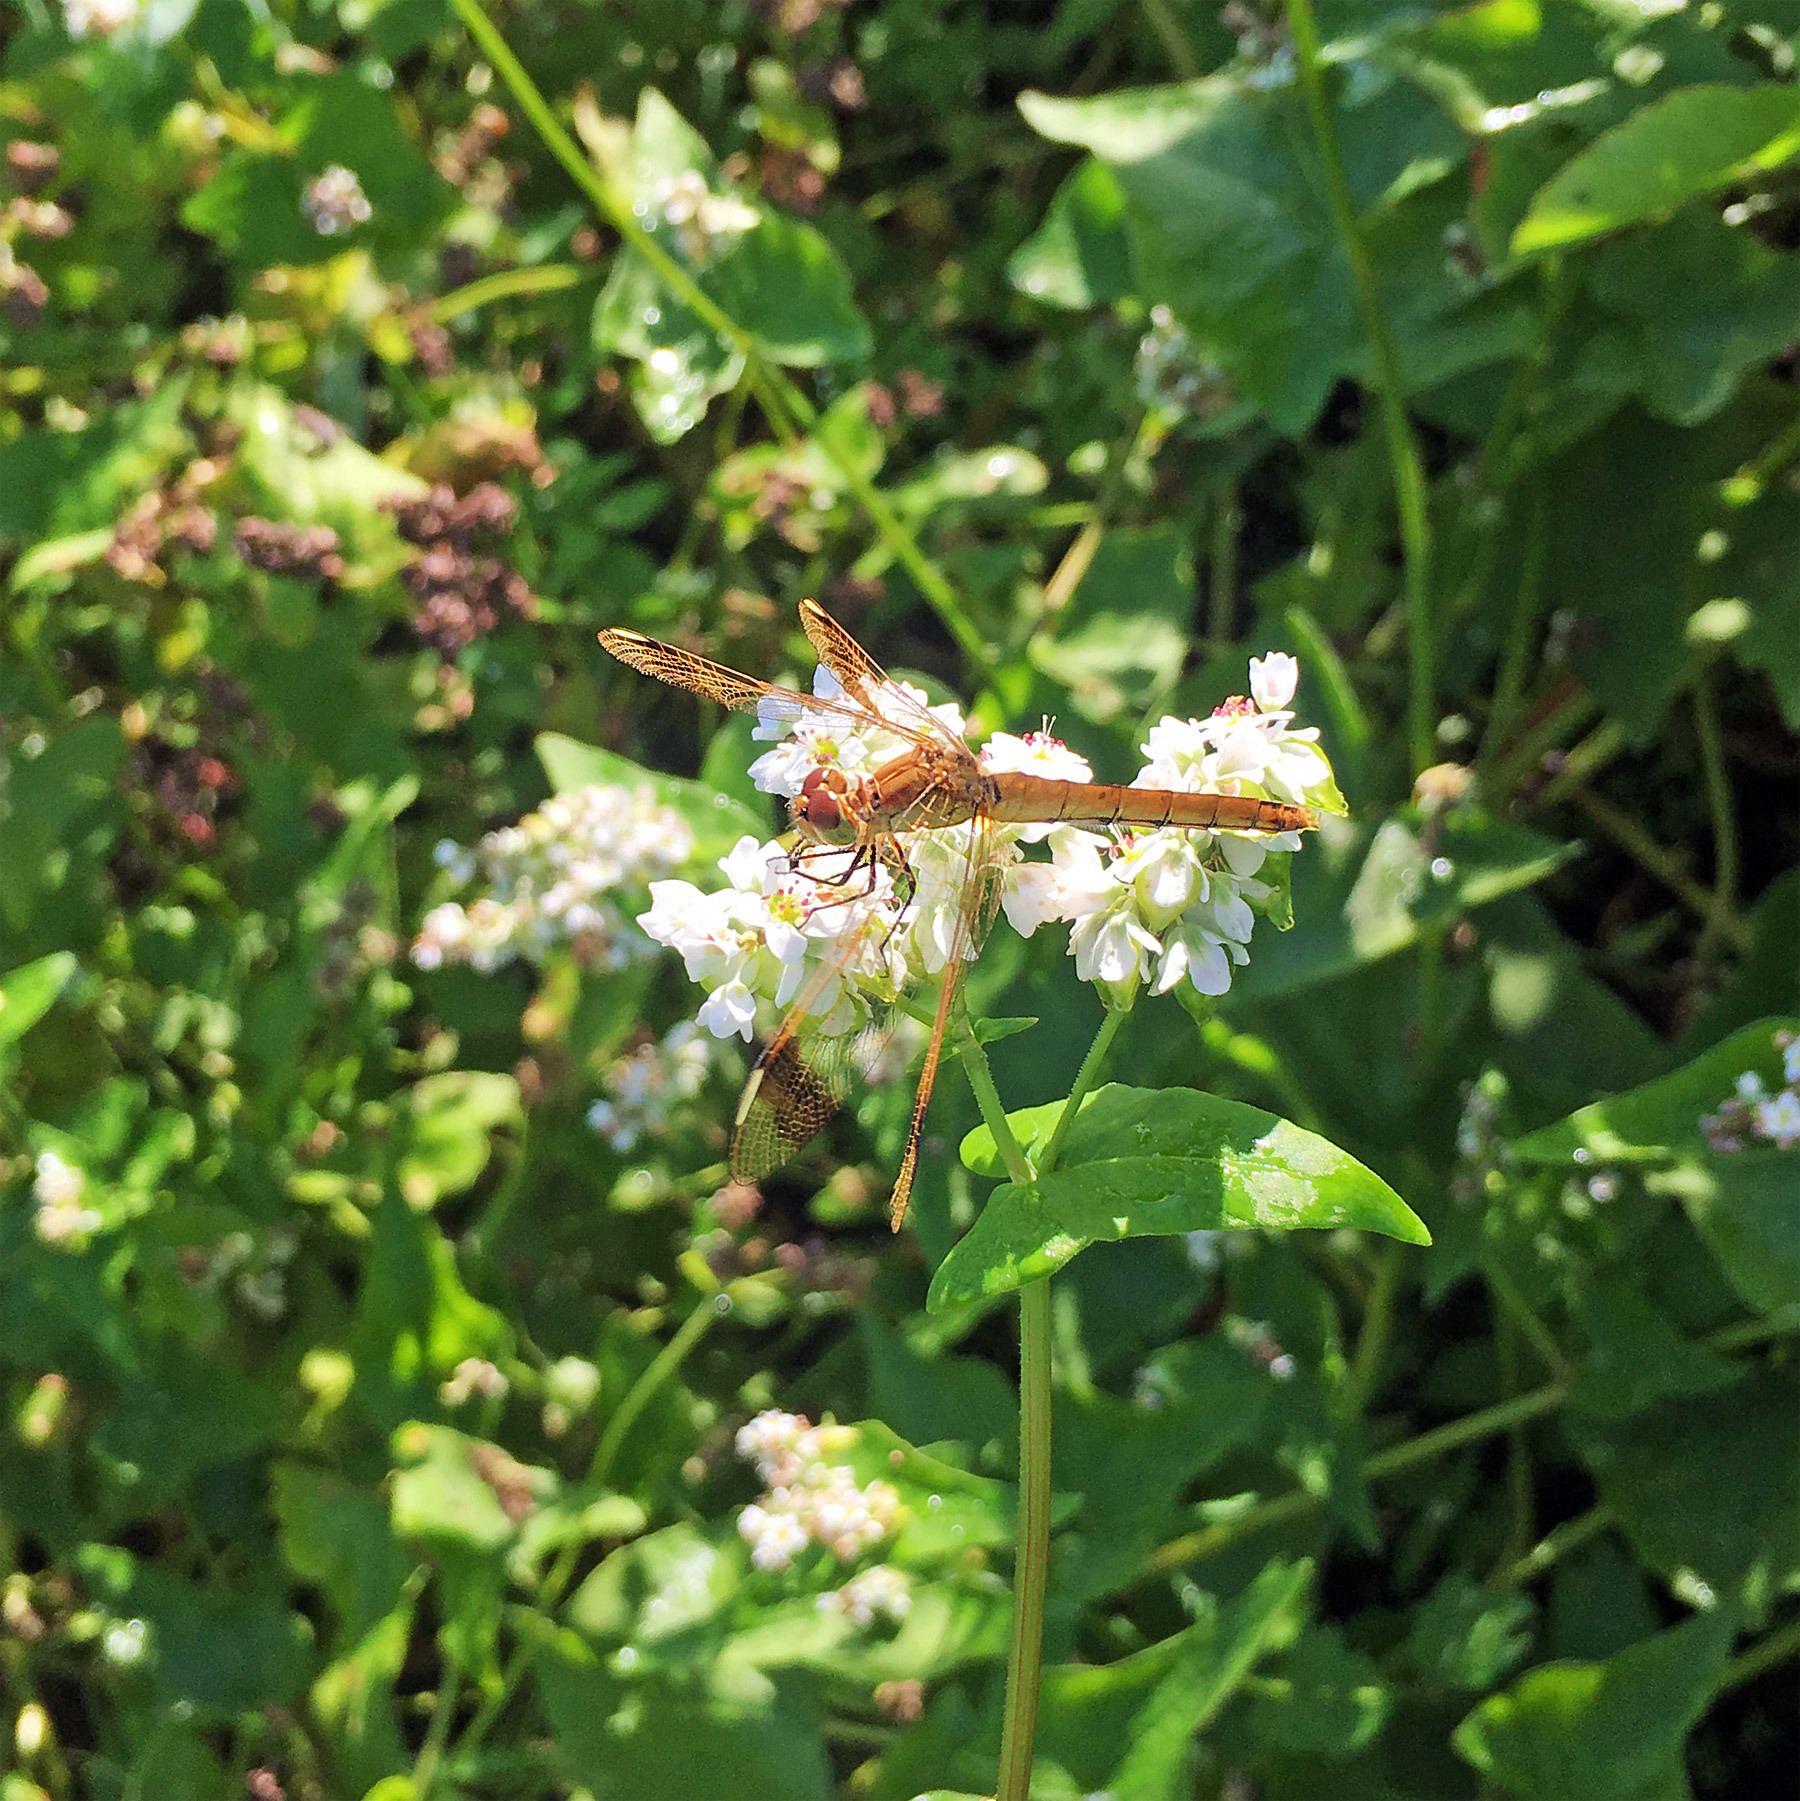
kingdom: Animalia
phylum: Arthropoda
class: Insecta
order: Odonata
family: Libellulidae
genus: Sympetrum
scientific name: Sympetrum pedemontanum
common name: Banded darter
